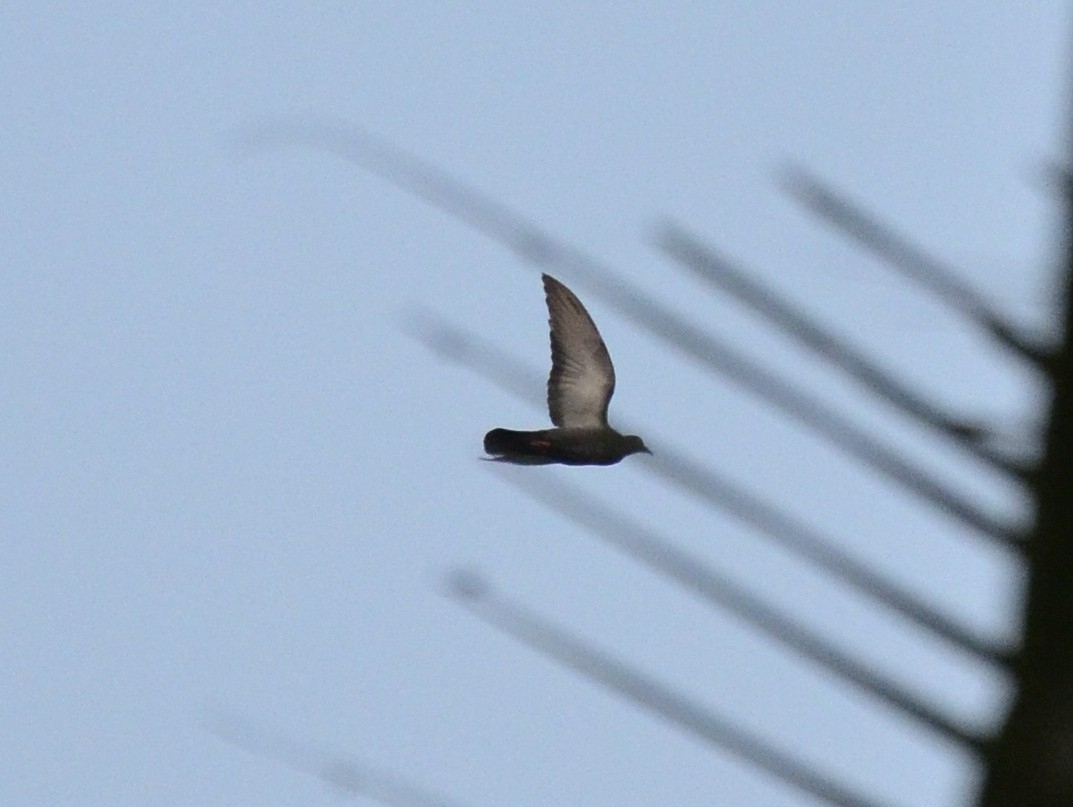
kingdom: Animalia
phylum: Chordata
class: Aves
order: Columbiformes
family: Columbidae
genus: Columba
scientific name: Columba livia
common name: Rock pigeon
